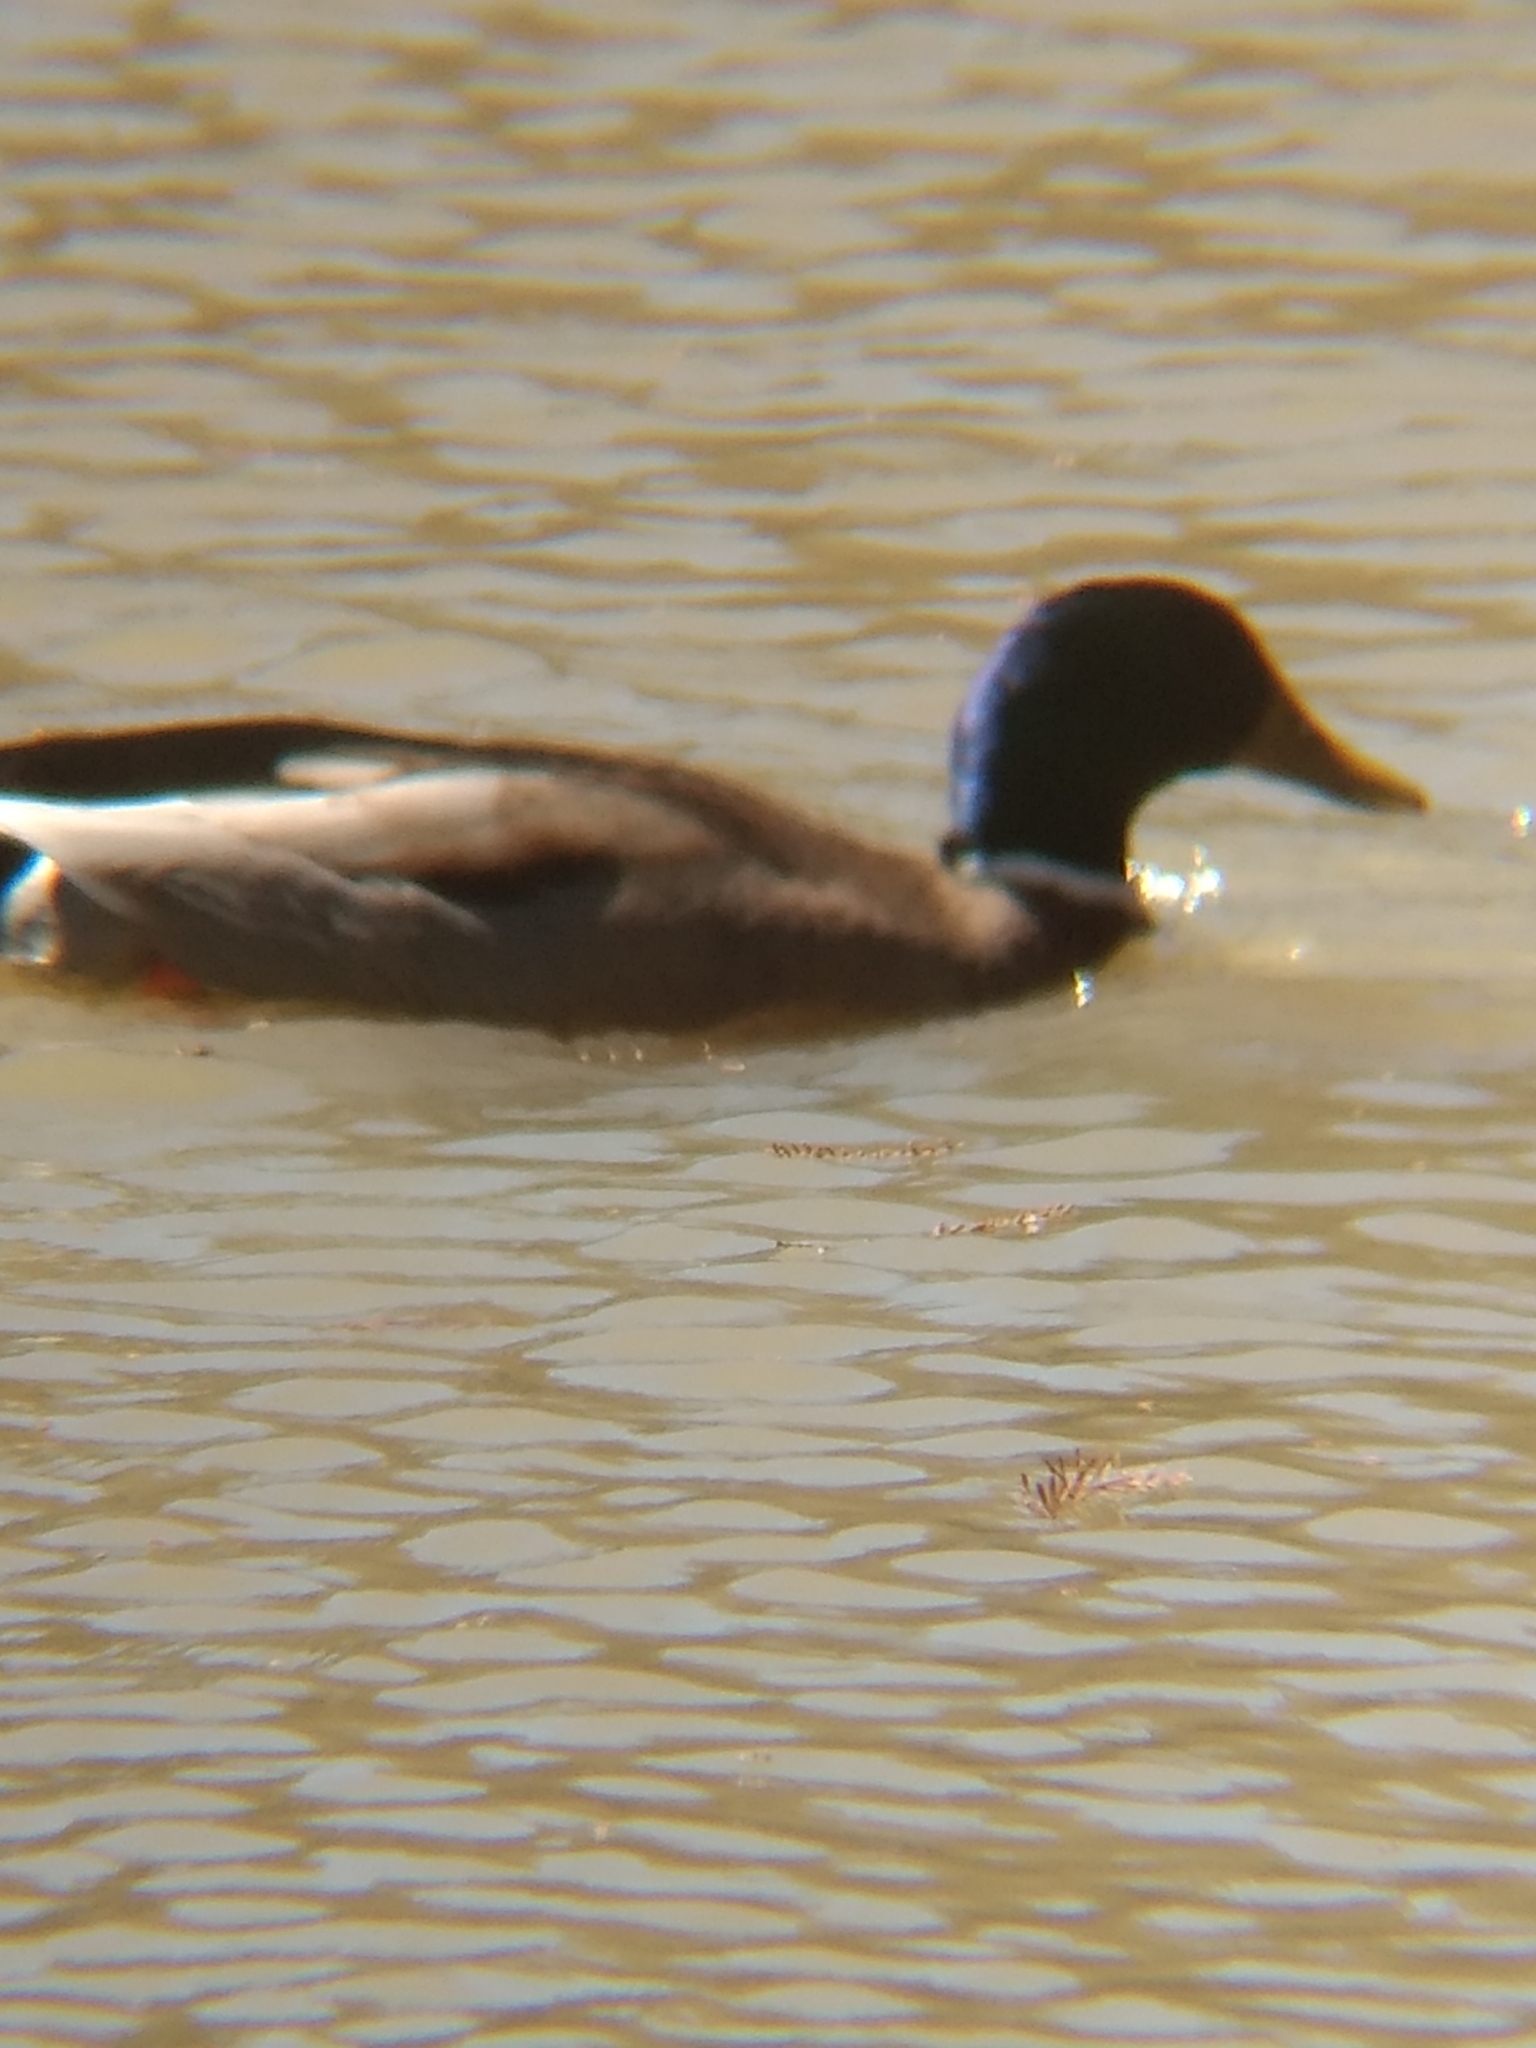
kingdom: Animalia
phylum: Chordata
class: Aves
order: Anseriformes
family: Anatidae
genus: Anas
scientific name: Anas platyrhynchos
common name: Mallard
